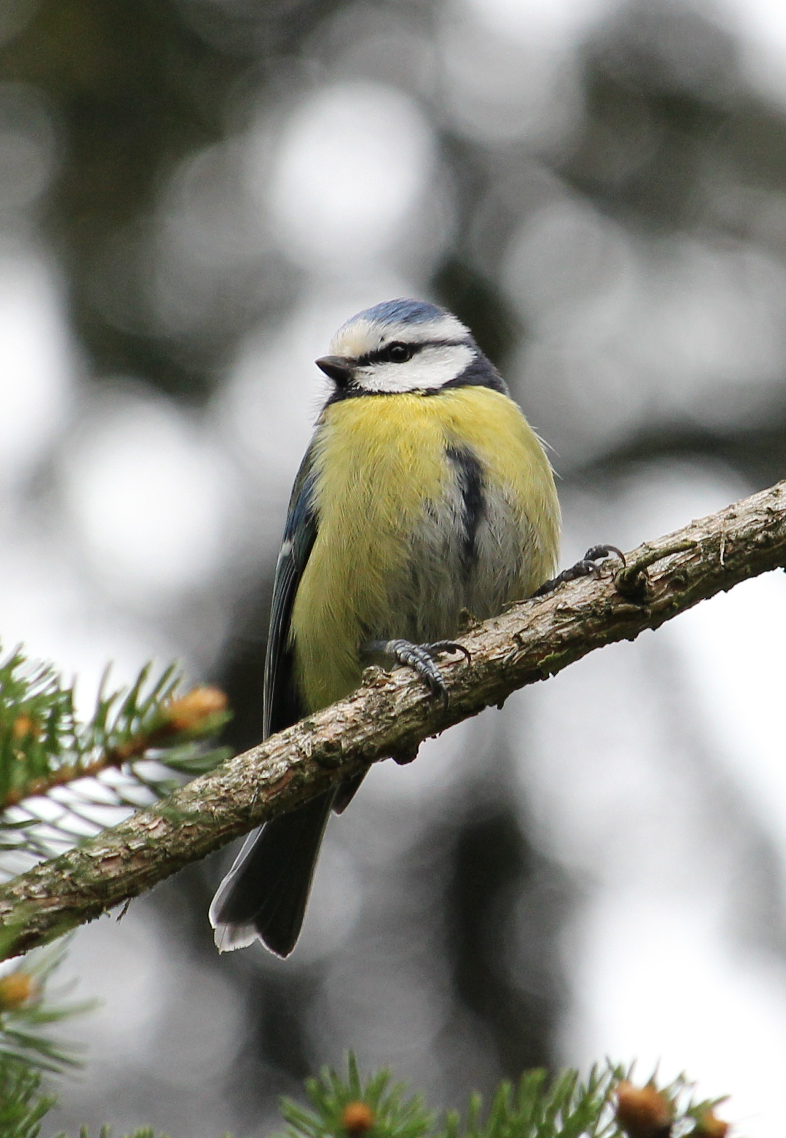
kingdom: Animalia
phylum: Chordata
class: Aves
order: Passeriformes
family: Paridae
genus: Cyanistes
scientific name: Cyanistes caeruleus
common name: Eurasian blue tit
